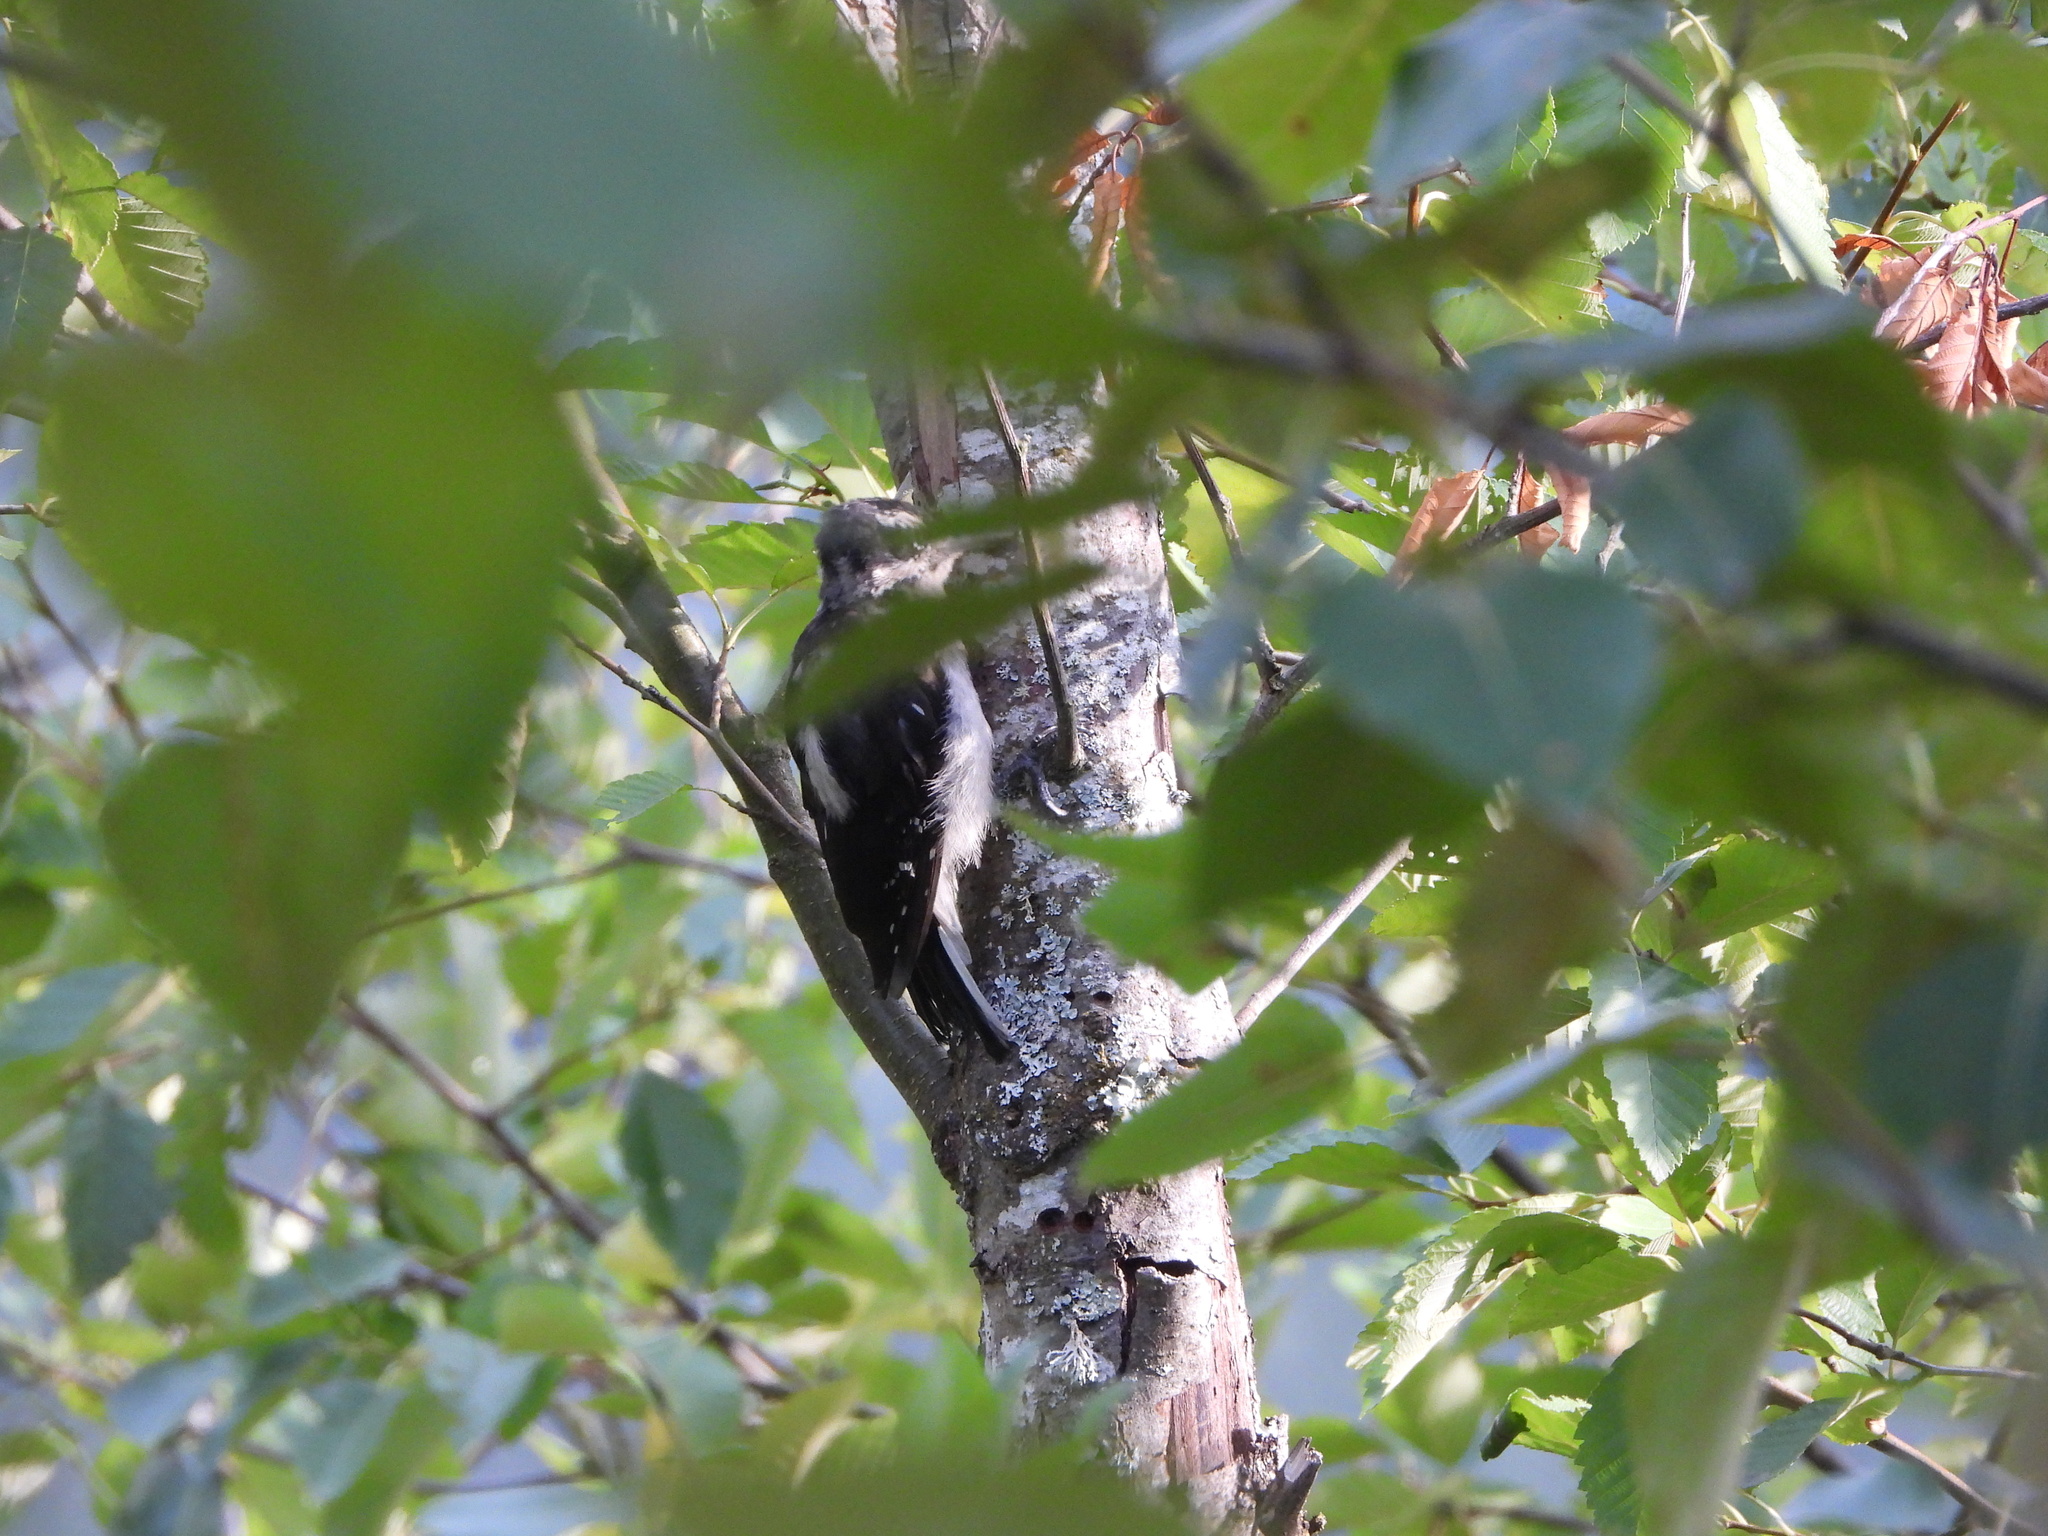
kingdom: Animalia
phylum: Chordata
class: Aves
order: Piciformes
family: Picidae
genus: Leuconotopicus
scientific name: Leuconotopicus villosus
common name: Hairy woodpecker
